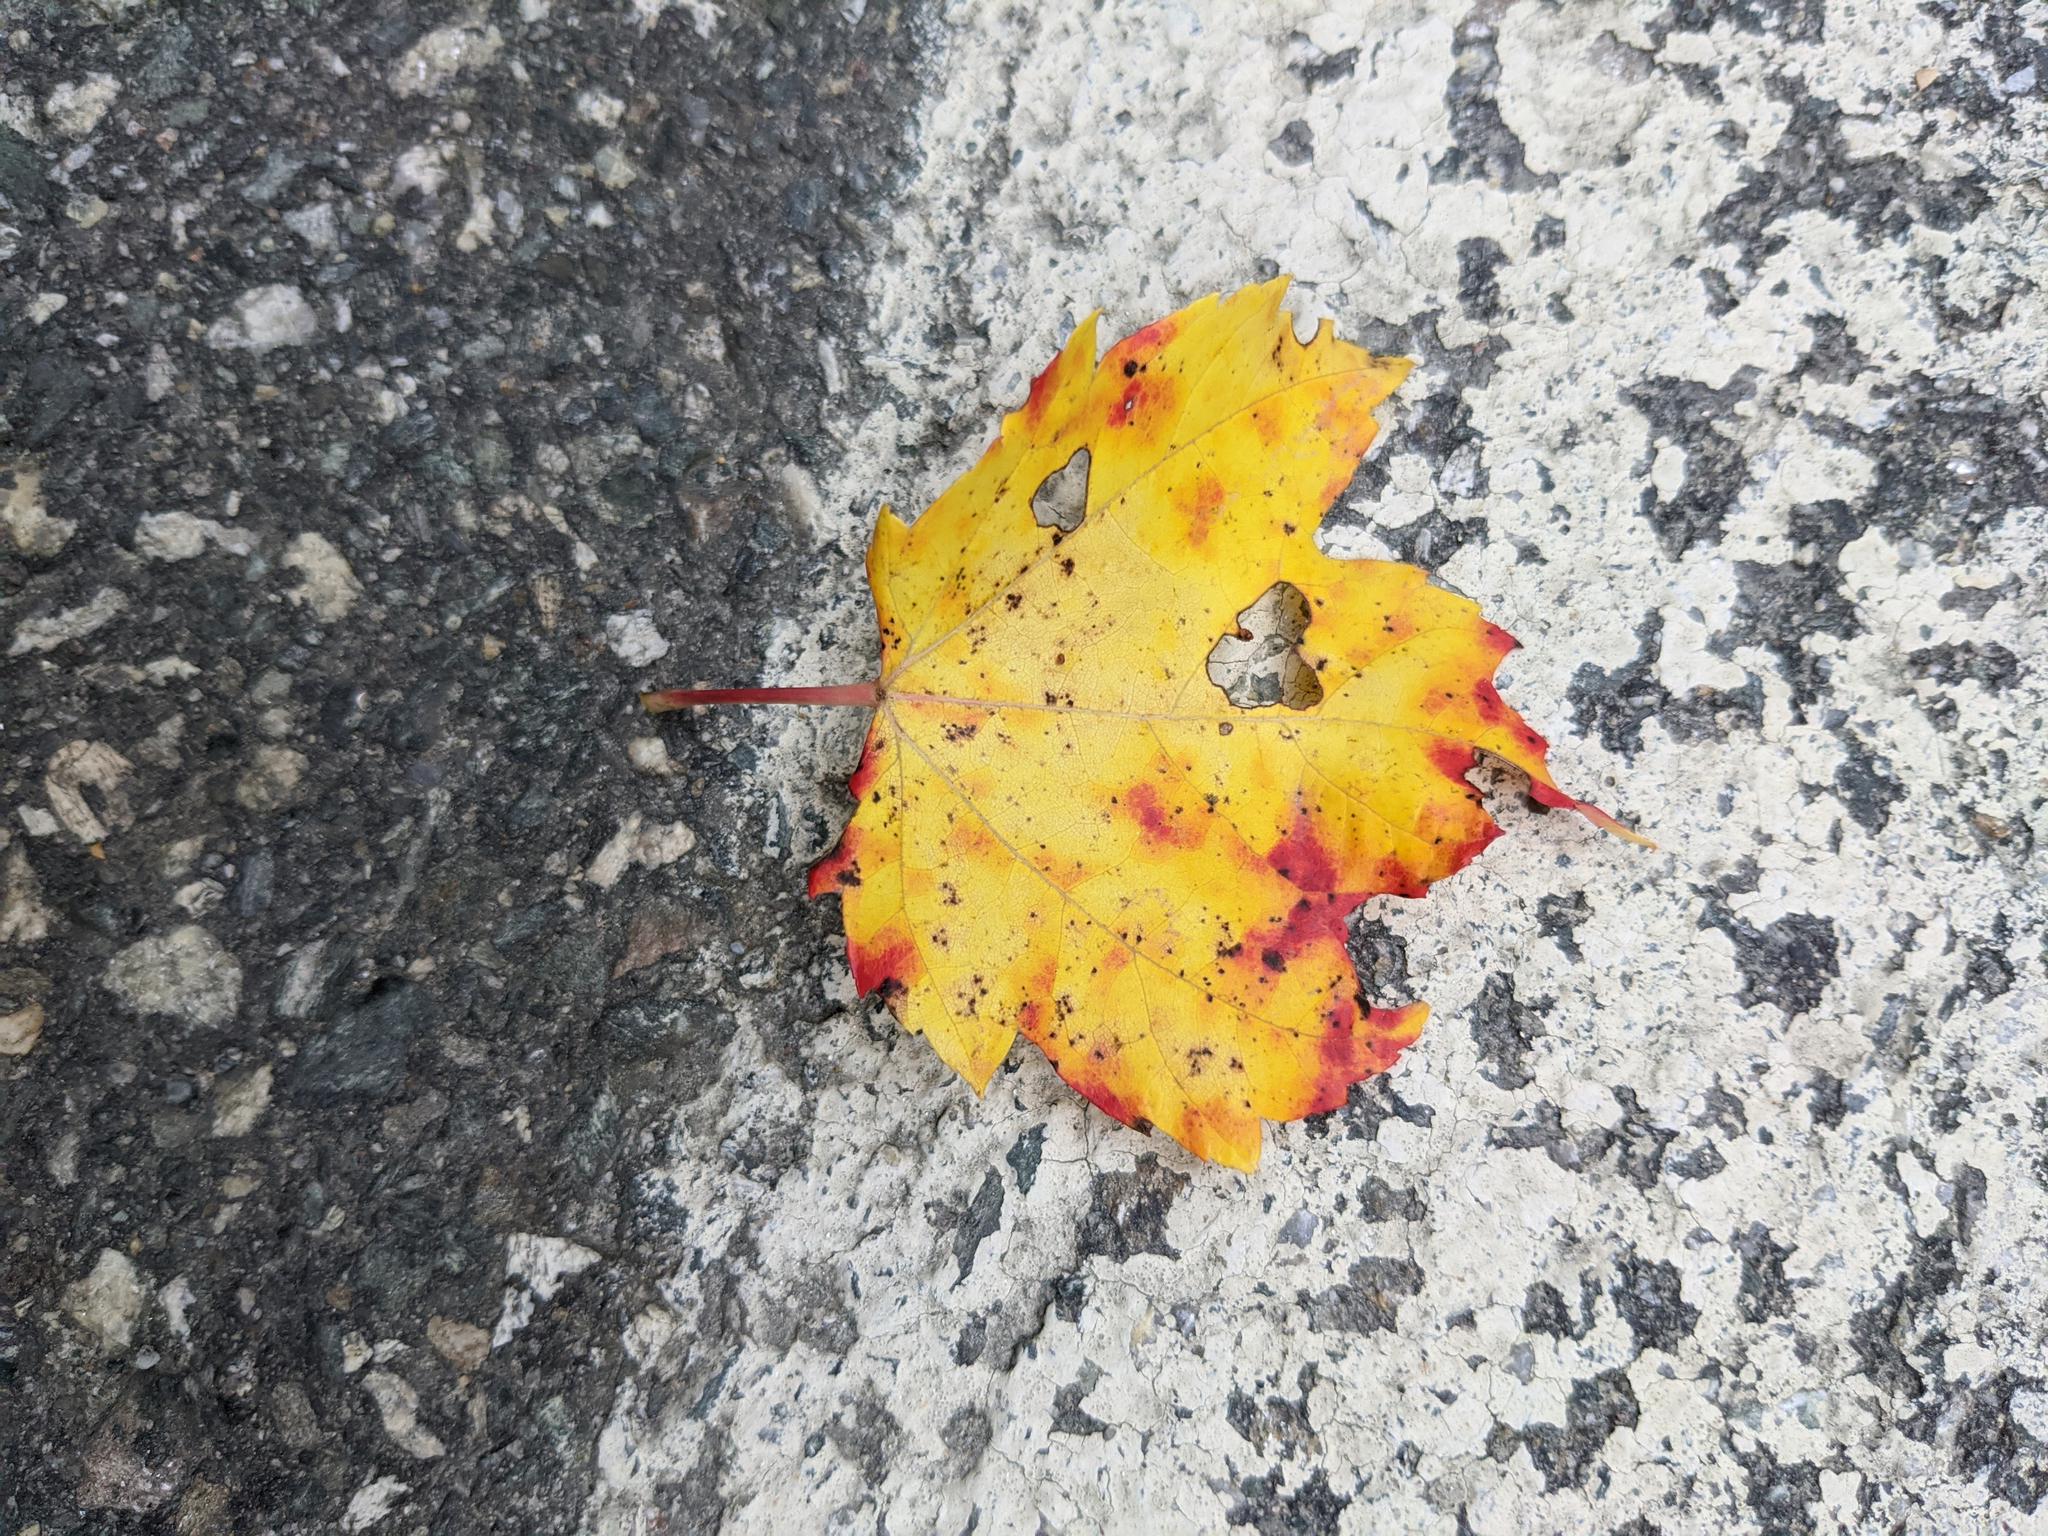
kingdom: Plantae
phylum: Tracheophyta
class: Magnoliopsida
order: Sapindales
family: Sapindaceae
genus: Acer
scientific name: Acer rubrum
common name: Red maple
